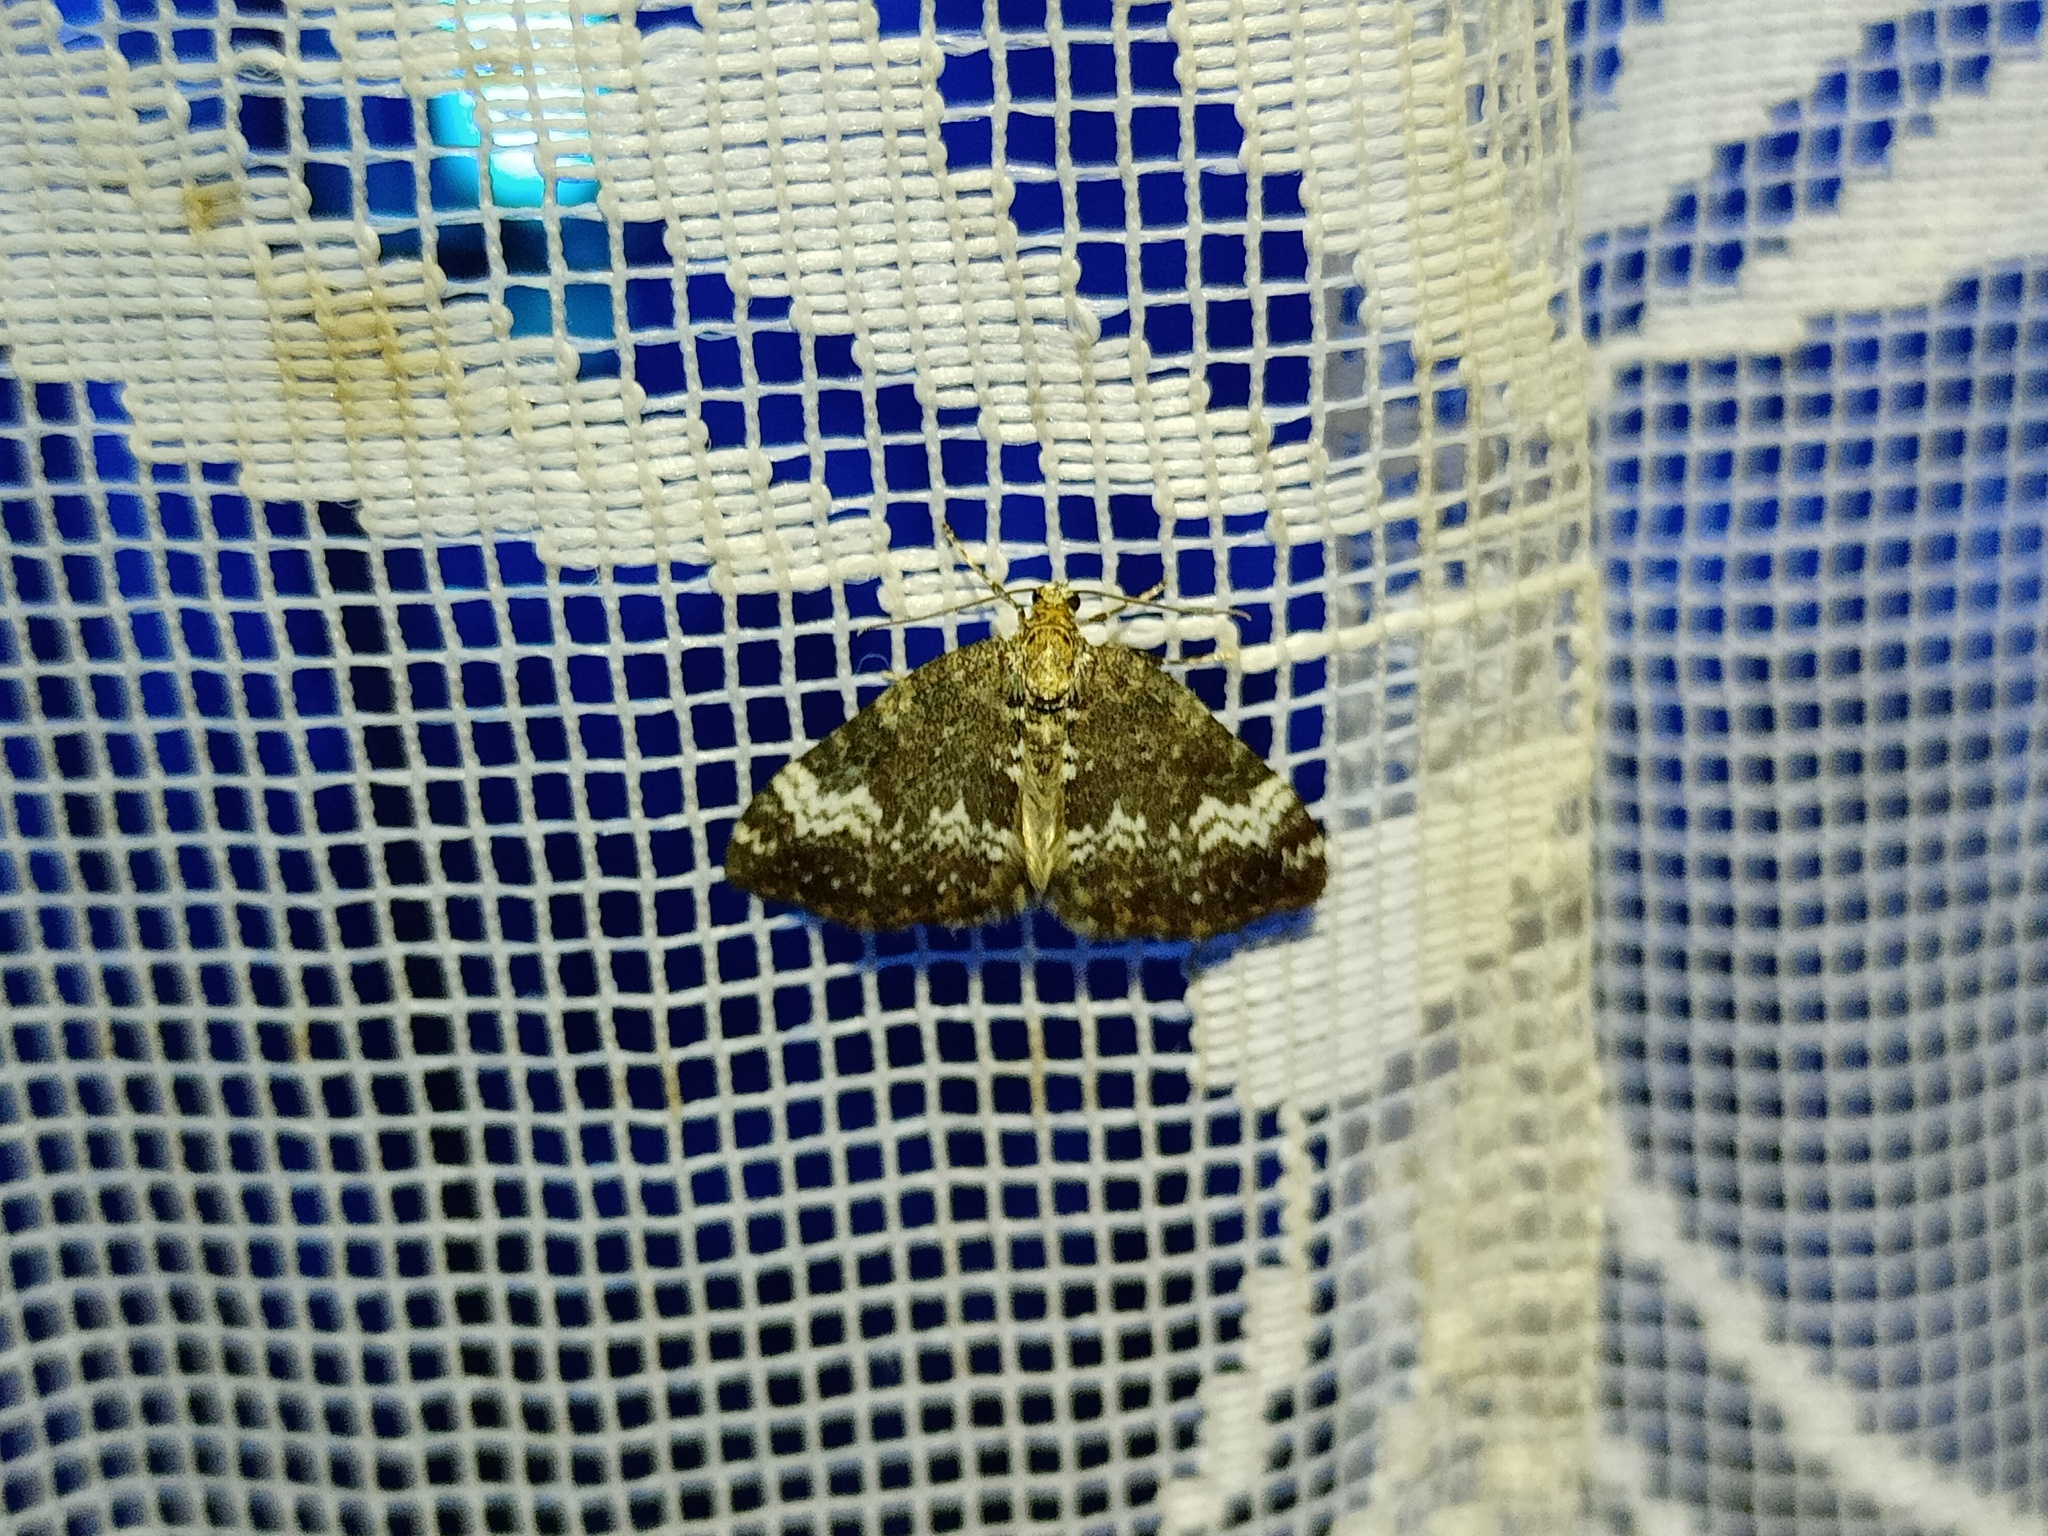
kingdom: Animalia
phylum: Arthropoda
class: Insecta
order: Lepidoptera
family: Geometridae
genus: Perizoma
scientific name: Perizoma alchemillata
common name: Small rivulet
